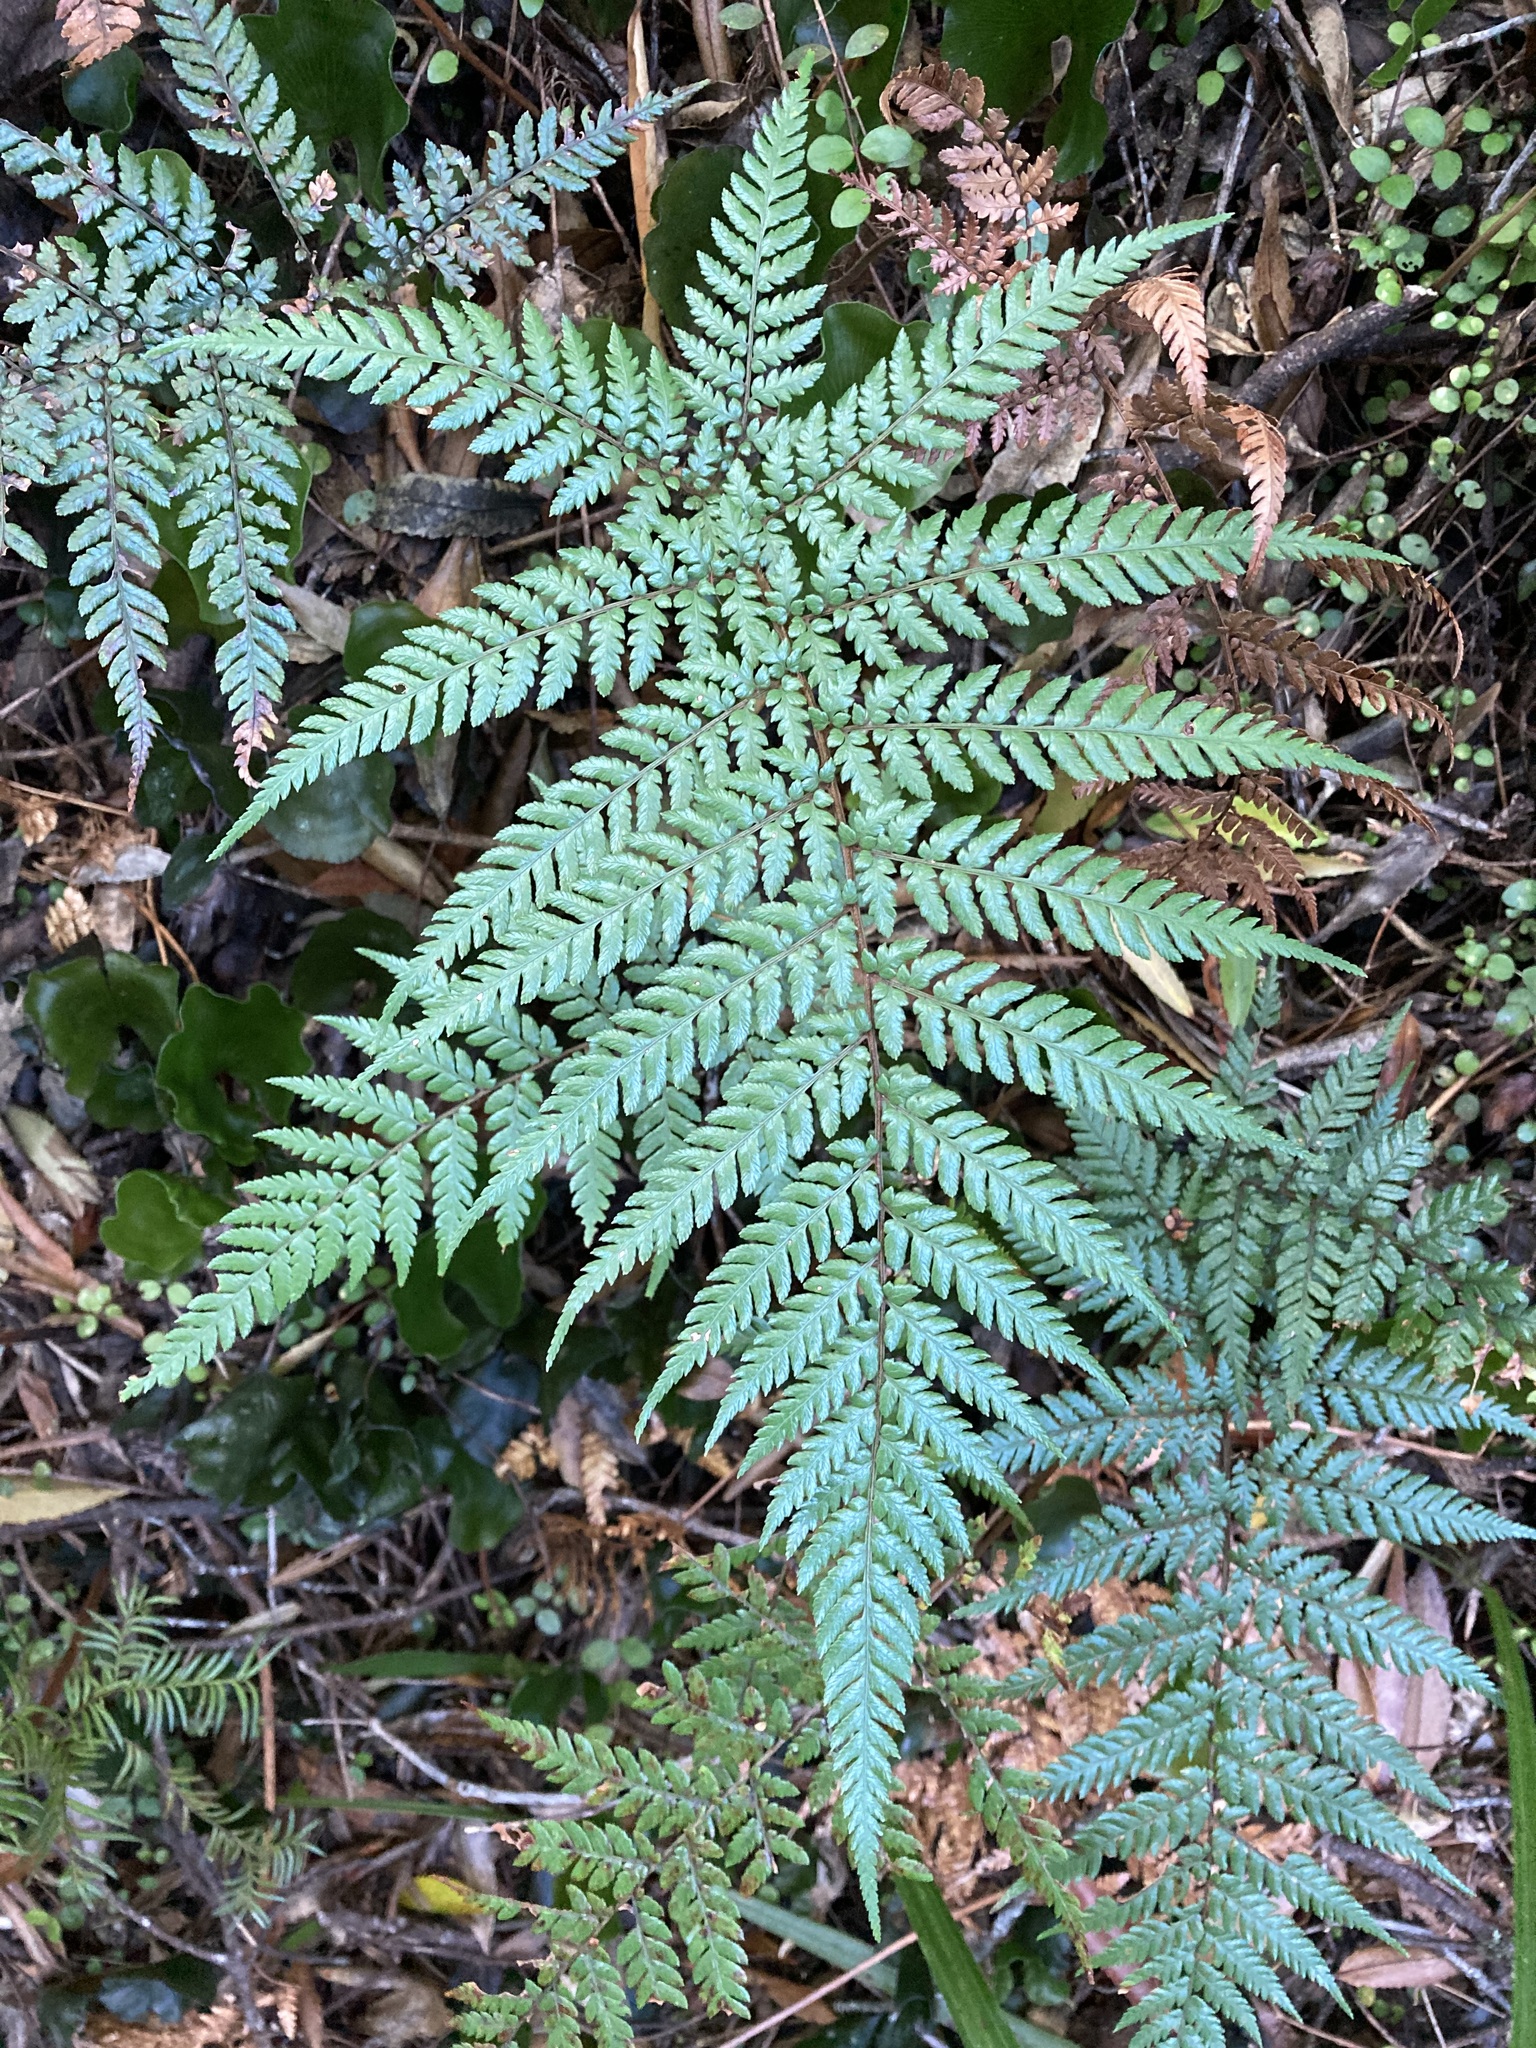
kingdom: Plantae
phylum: Tracheophyta
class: Polypodiopsida
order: Cyatheales
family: Dicksoniaceae
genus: Dicksonia
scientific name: Dicksonia lanata
